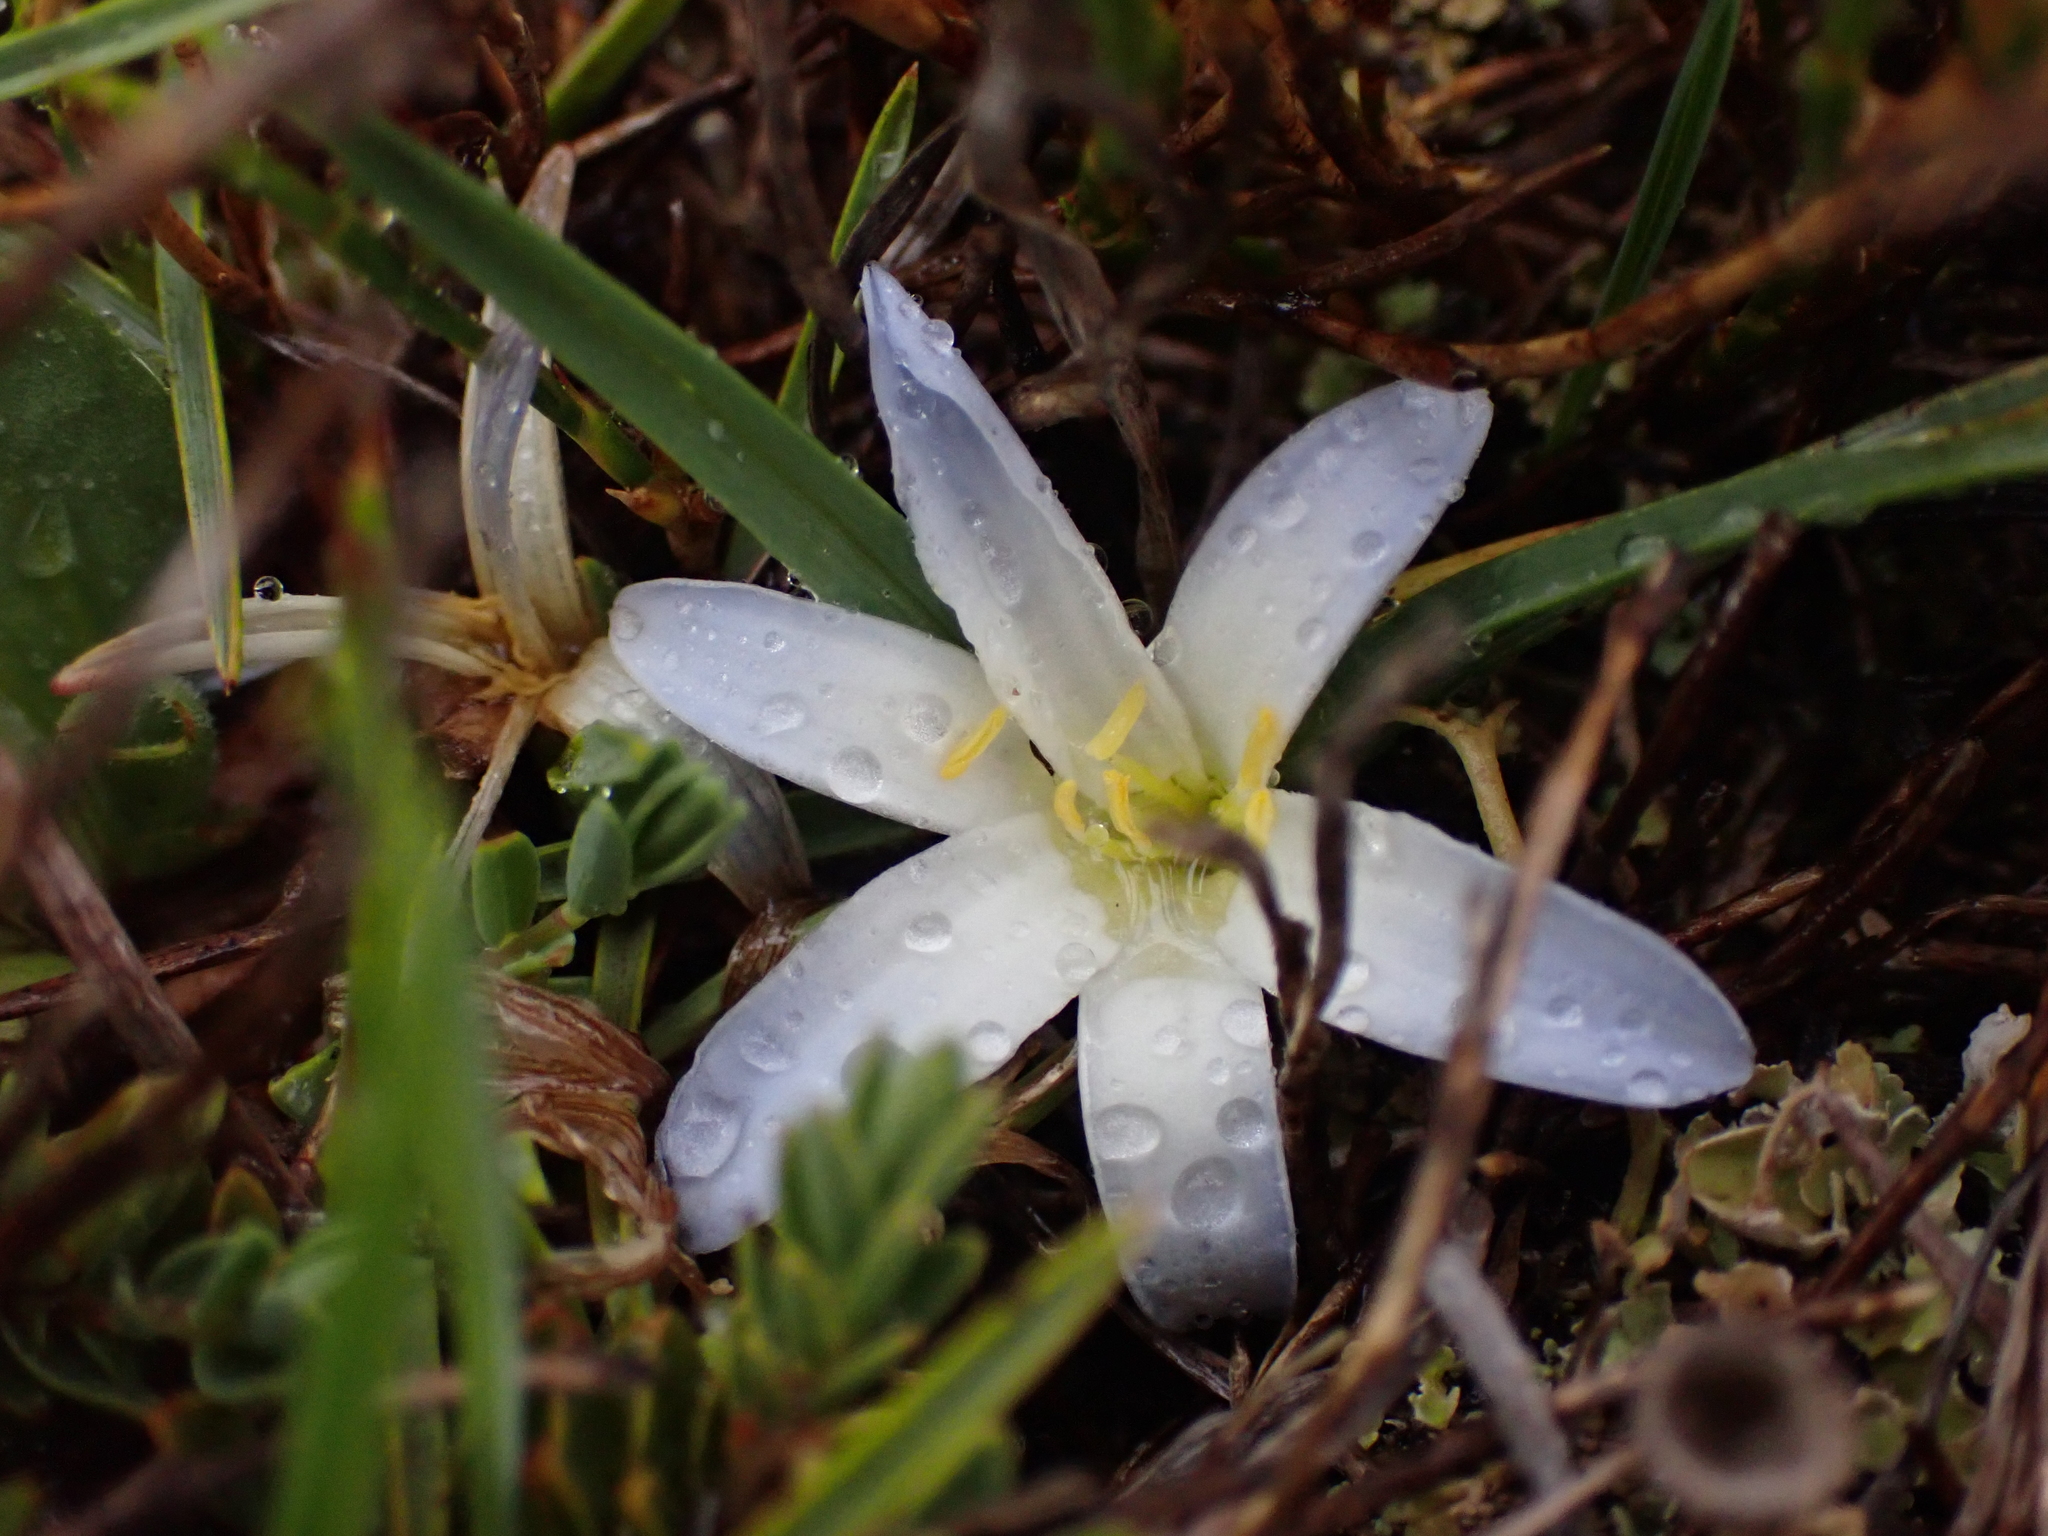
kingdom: Plantae
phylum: Tracheophyta
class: Liliopsida
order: Asparagales
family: Asphodelaceae
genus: Herpolirion
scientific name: Herpolirion novae-zelandiae
